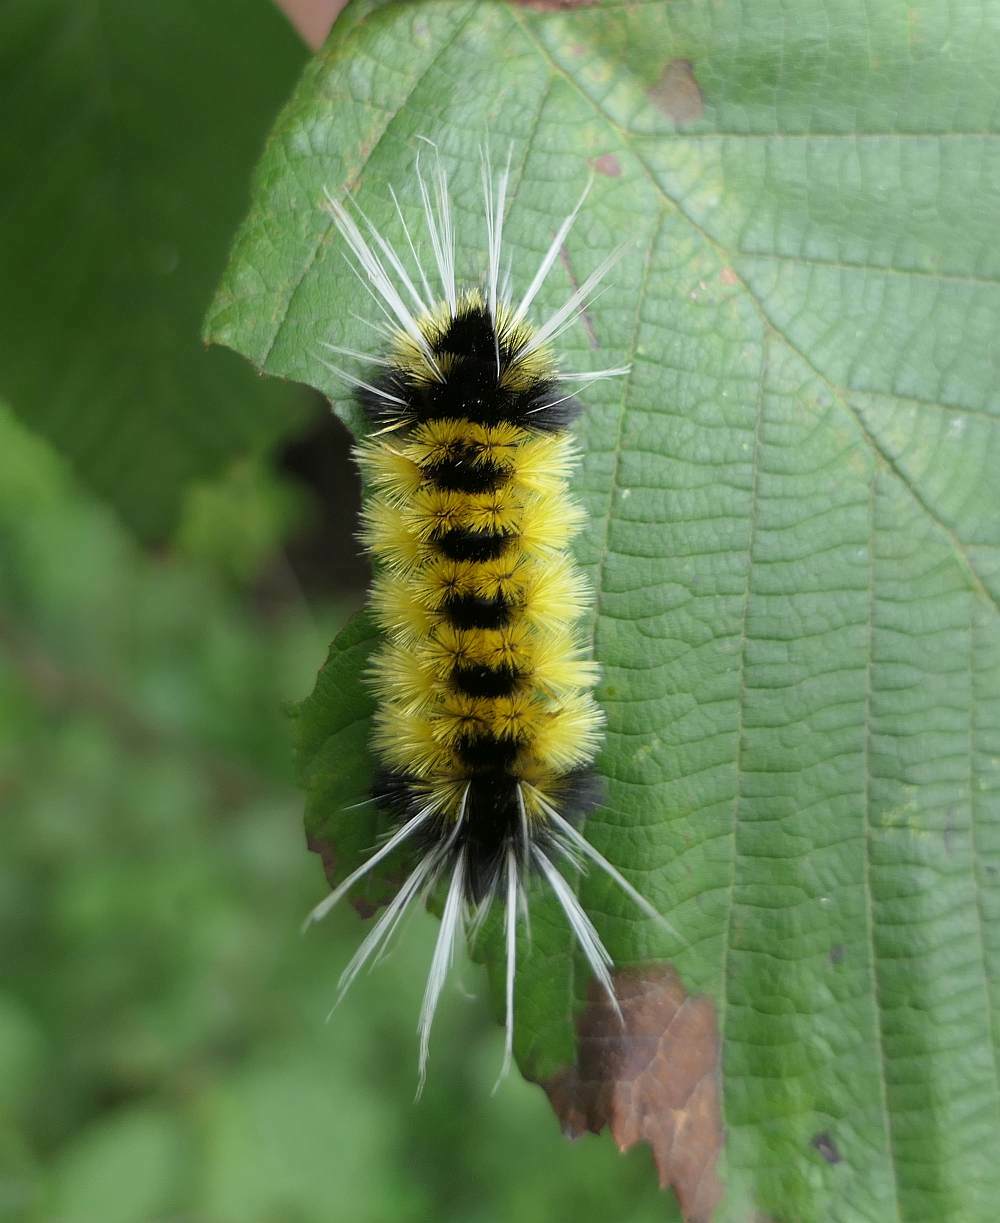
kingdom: Animalia
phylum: Arthropoda
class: Insecta
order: Lepidoptera
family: Erebidae
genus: Lophocampa
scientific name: Lophocampa maculata
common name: Spotted tussock moth
